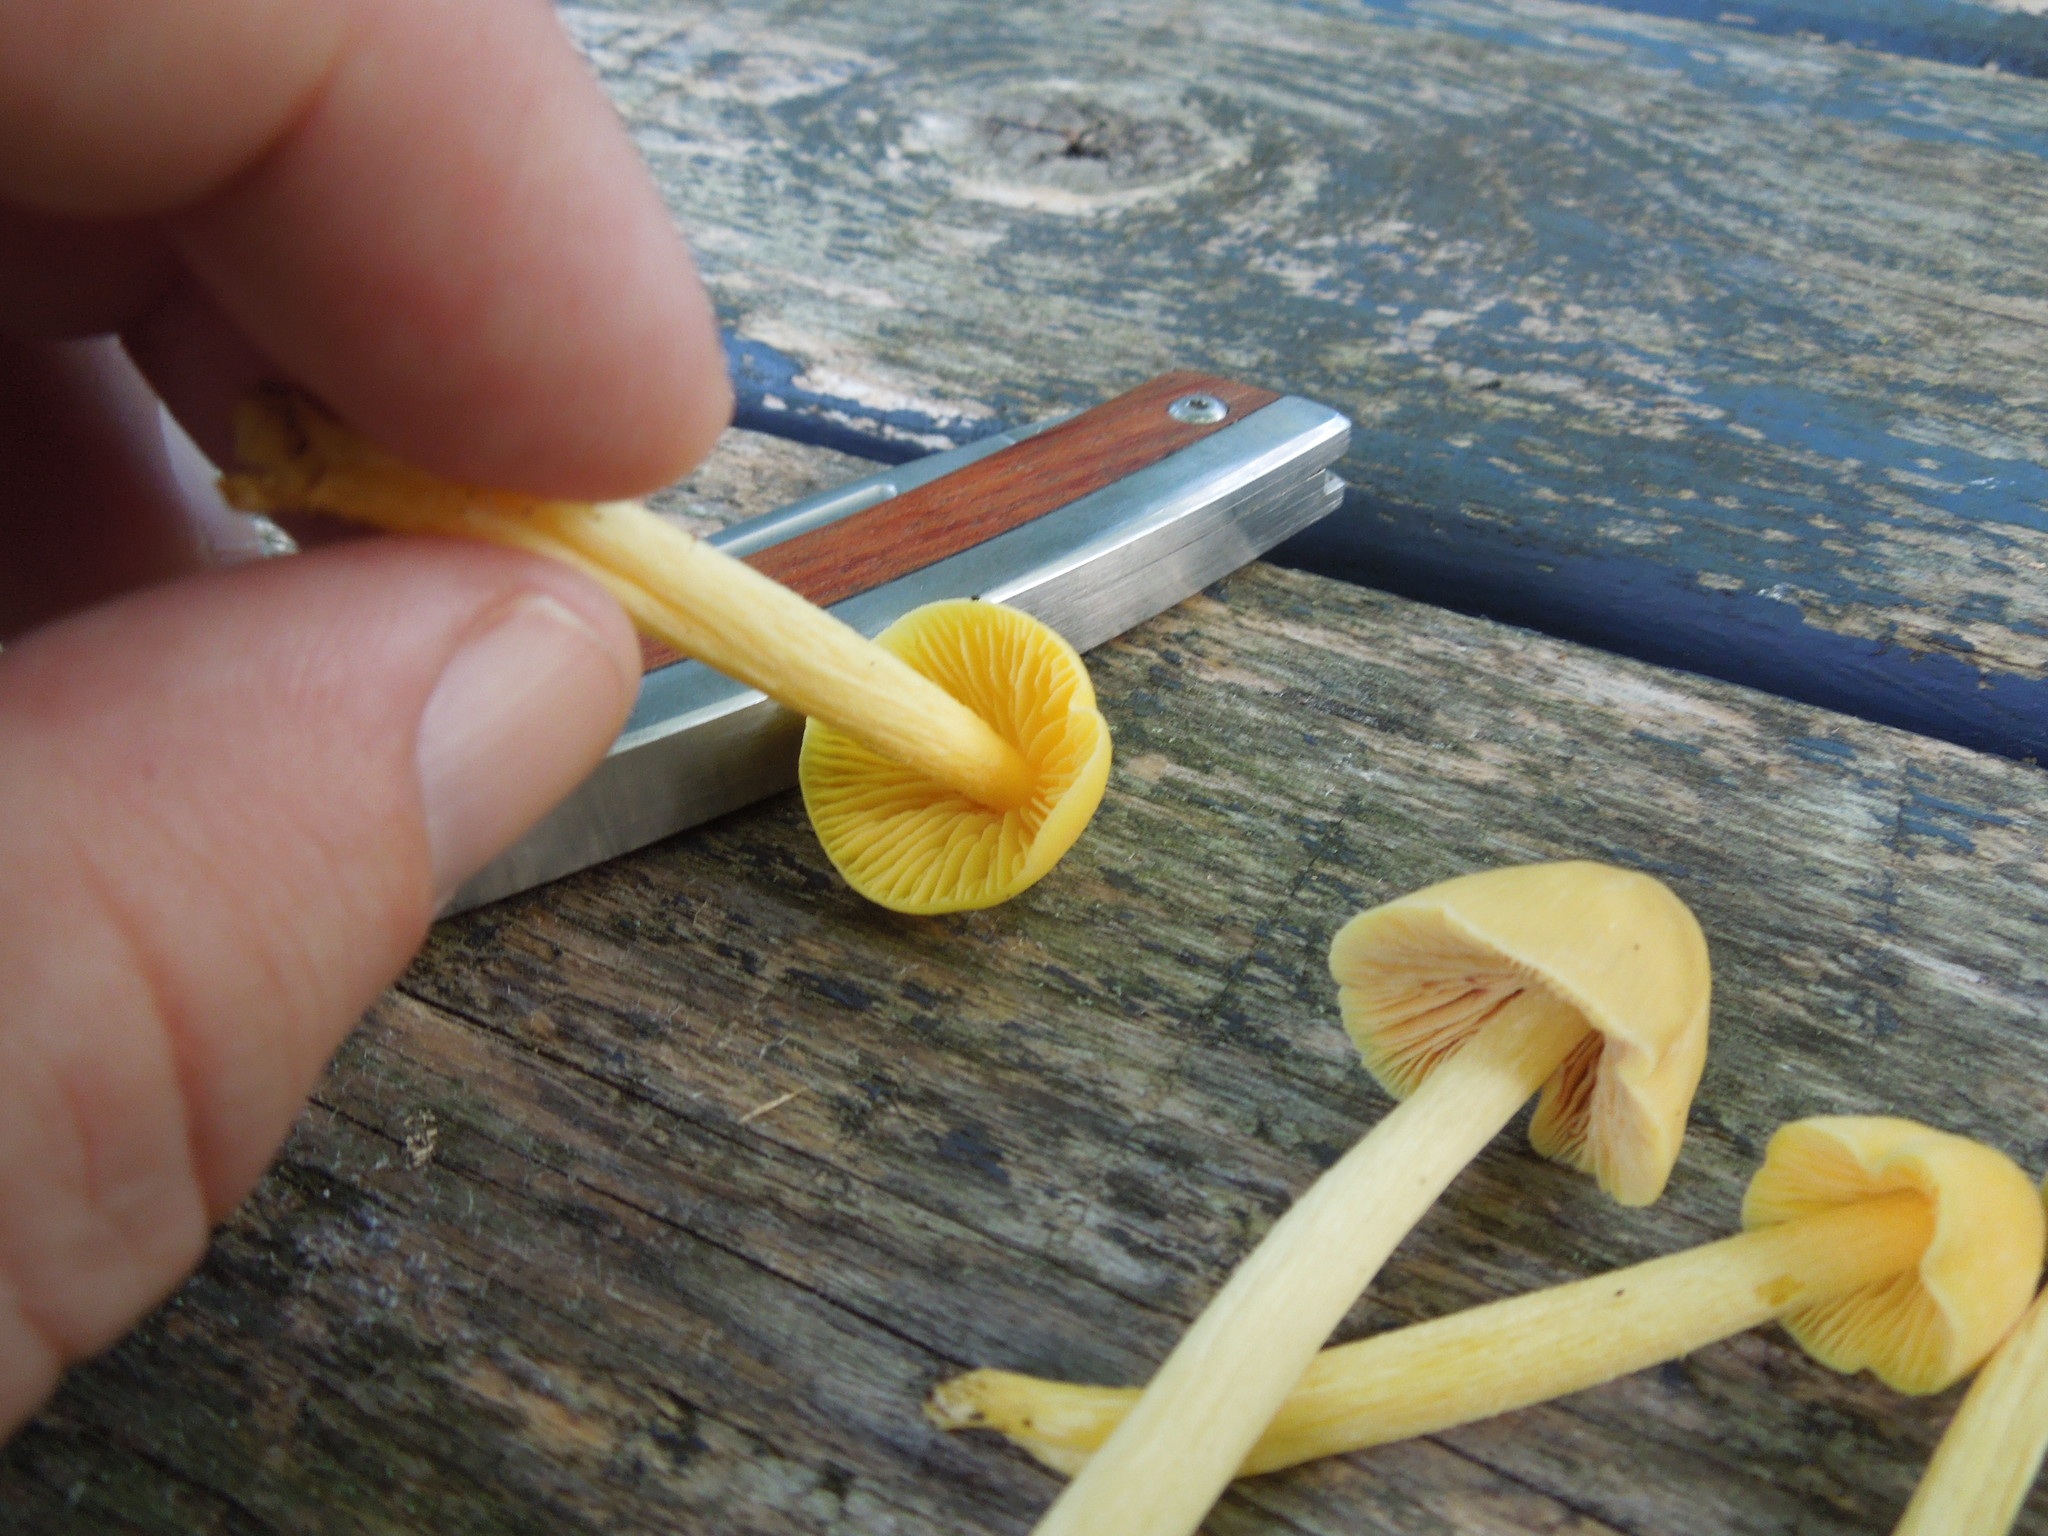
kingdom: Fungi
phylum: Basidiomycota
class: Agaricomycetes
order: Agaricales
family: Entolomataceae
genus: Entoloma
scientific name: Entoloma murrayi
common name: Yellow unicorn entoloma
